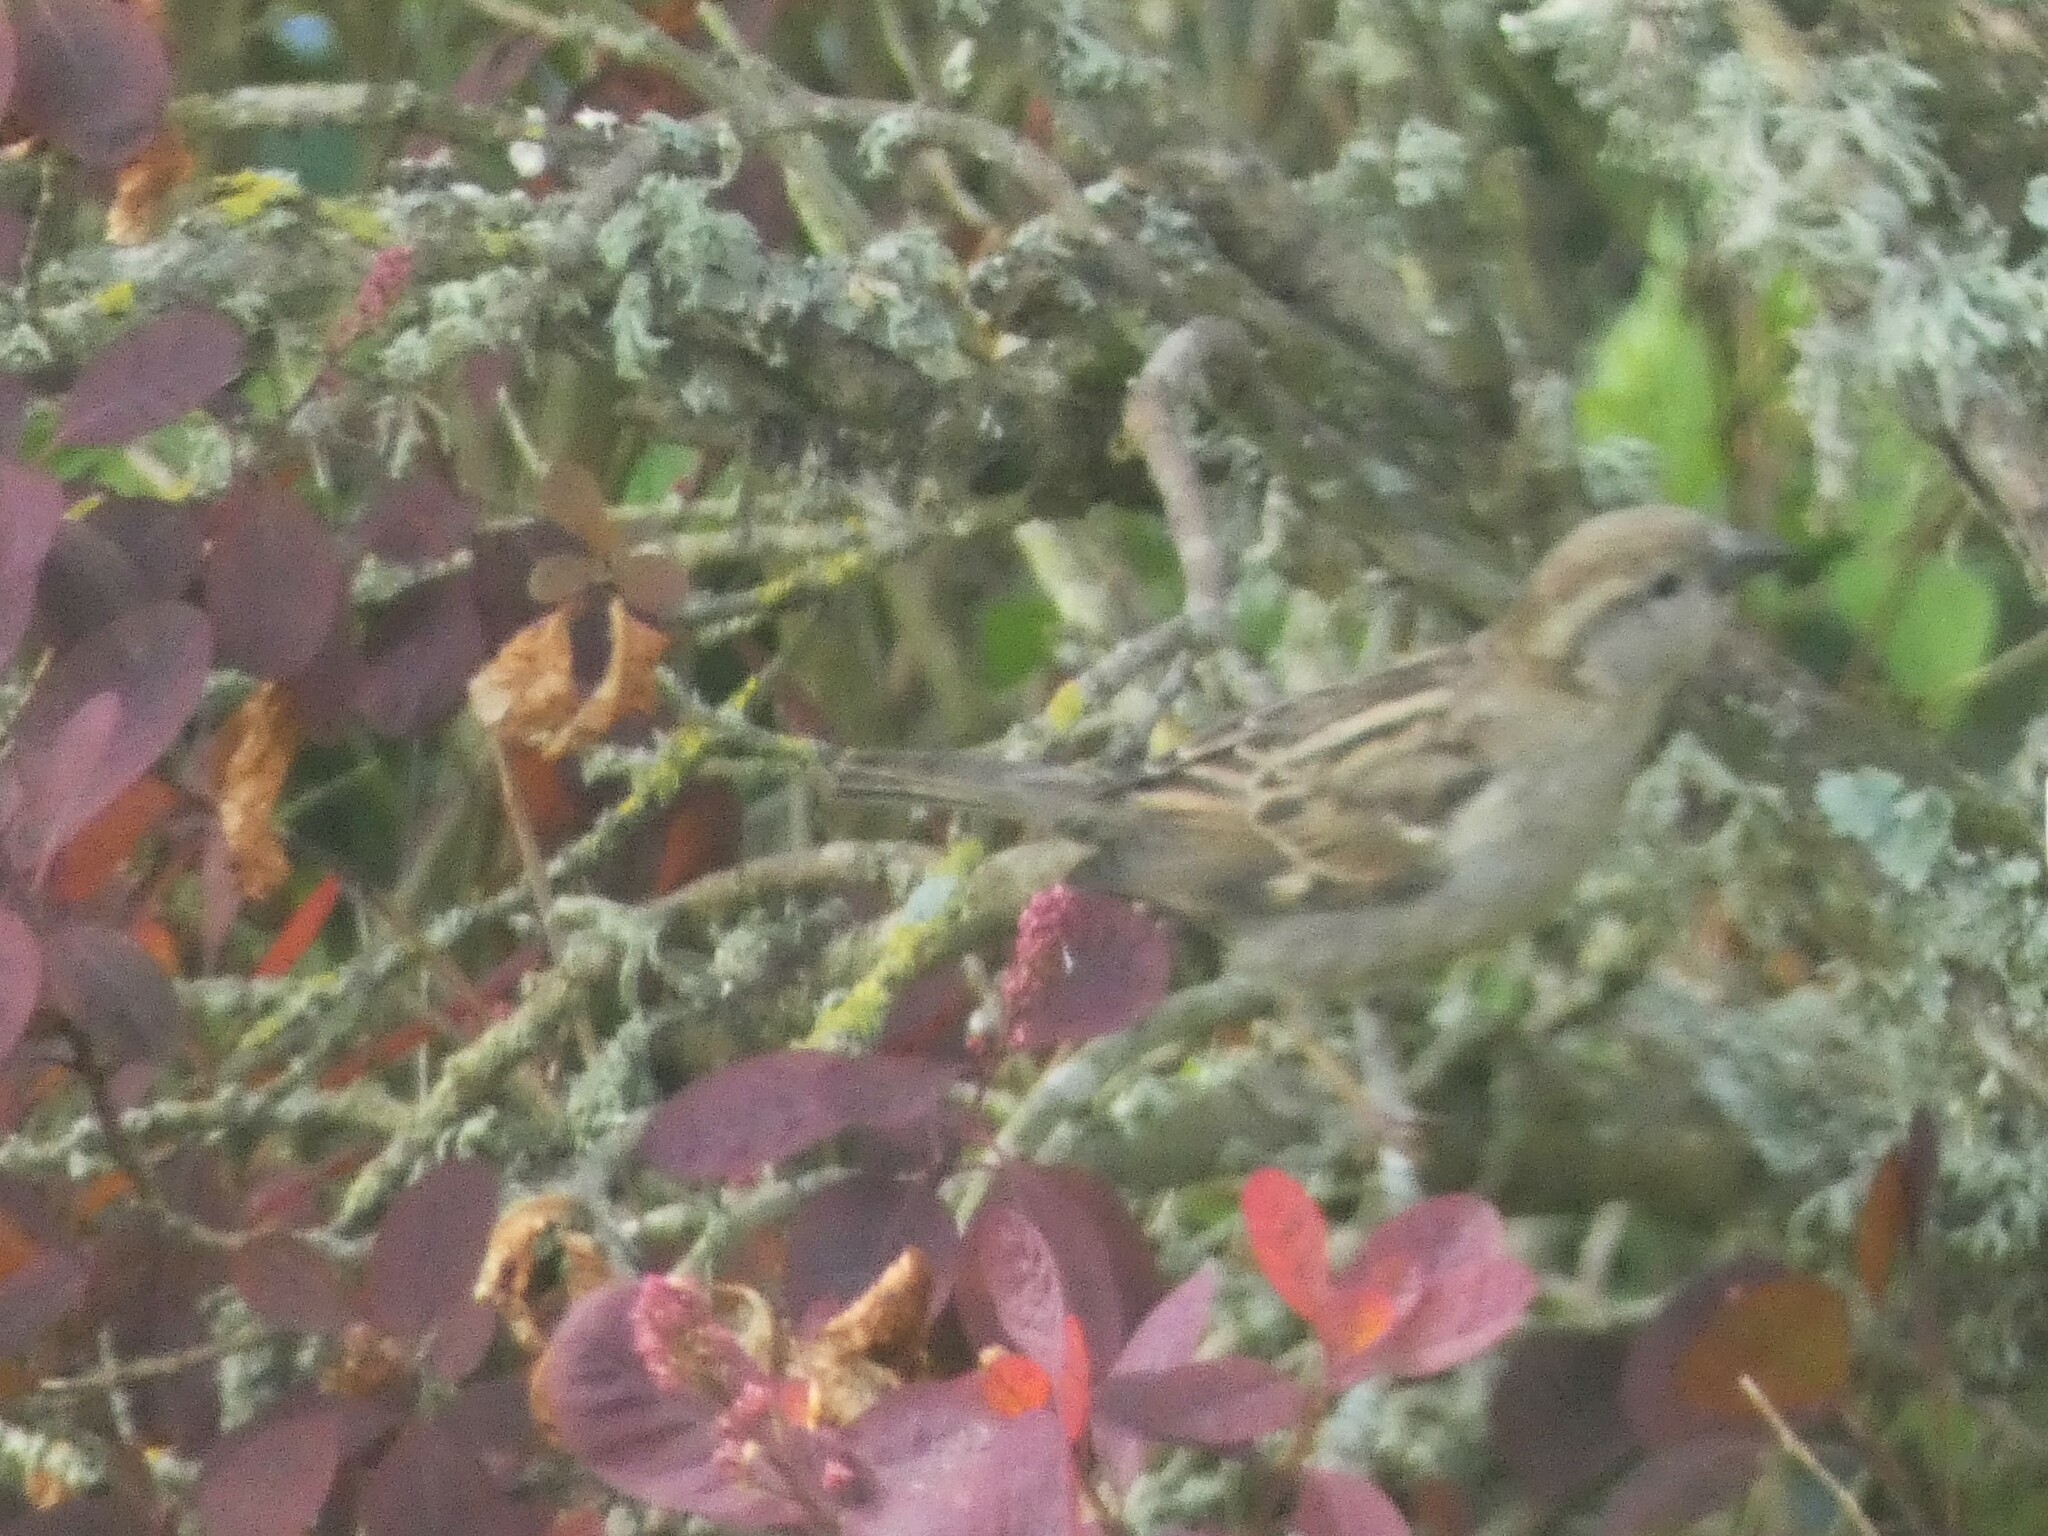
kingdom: Animalia
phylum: Chordata
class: Aves
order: Passeriformes
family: Passeridae
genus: Passer
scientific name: Passer domesticus
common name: House sparrow
